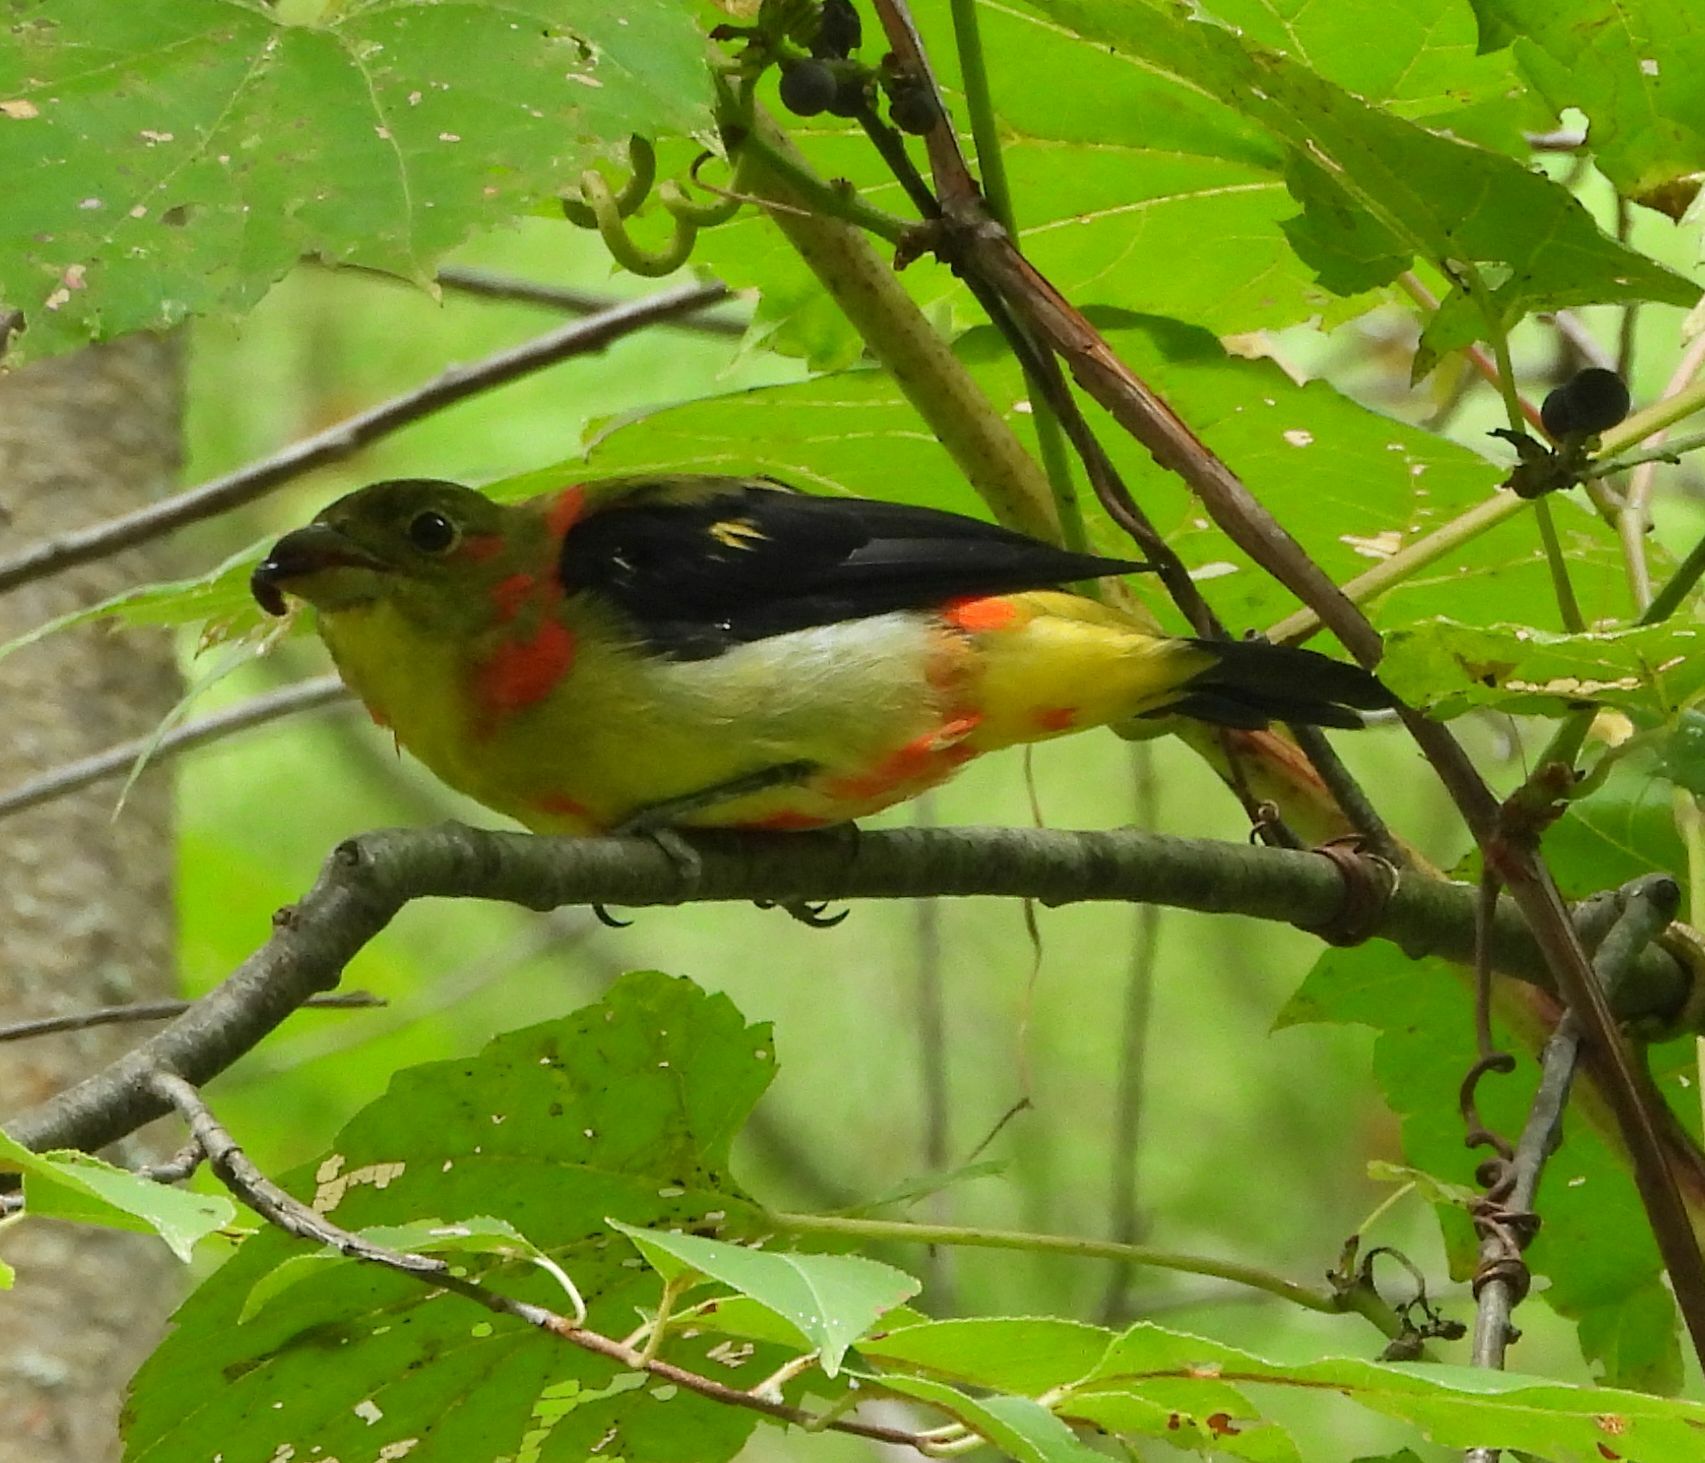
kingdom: Animalia
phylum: Chordata
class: Aves
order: Passeriformes
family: Cardinalidae
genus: Piranga
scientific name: Piranga olivacea
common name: Scarlet tanager
